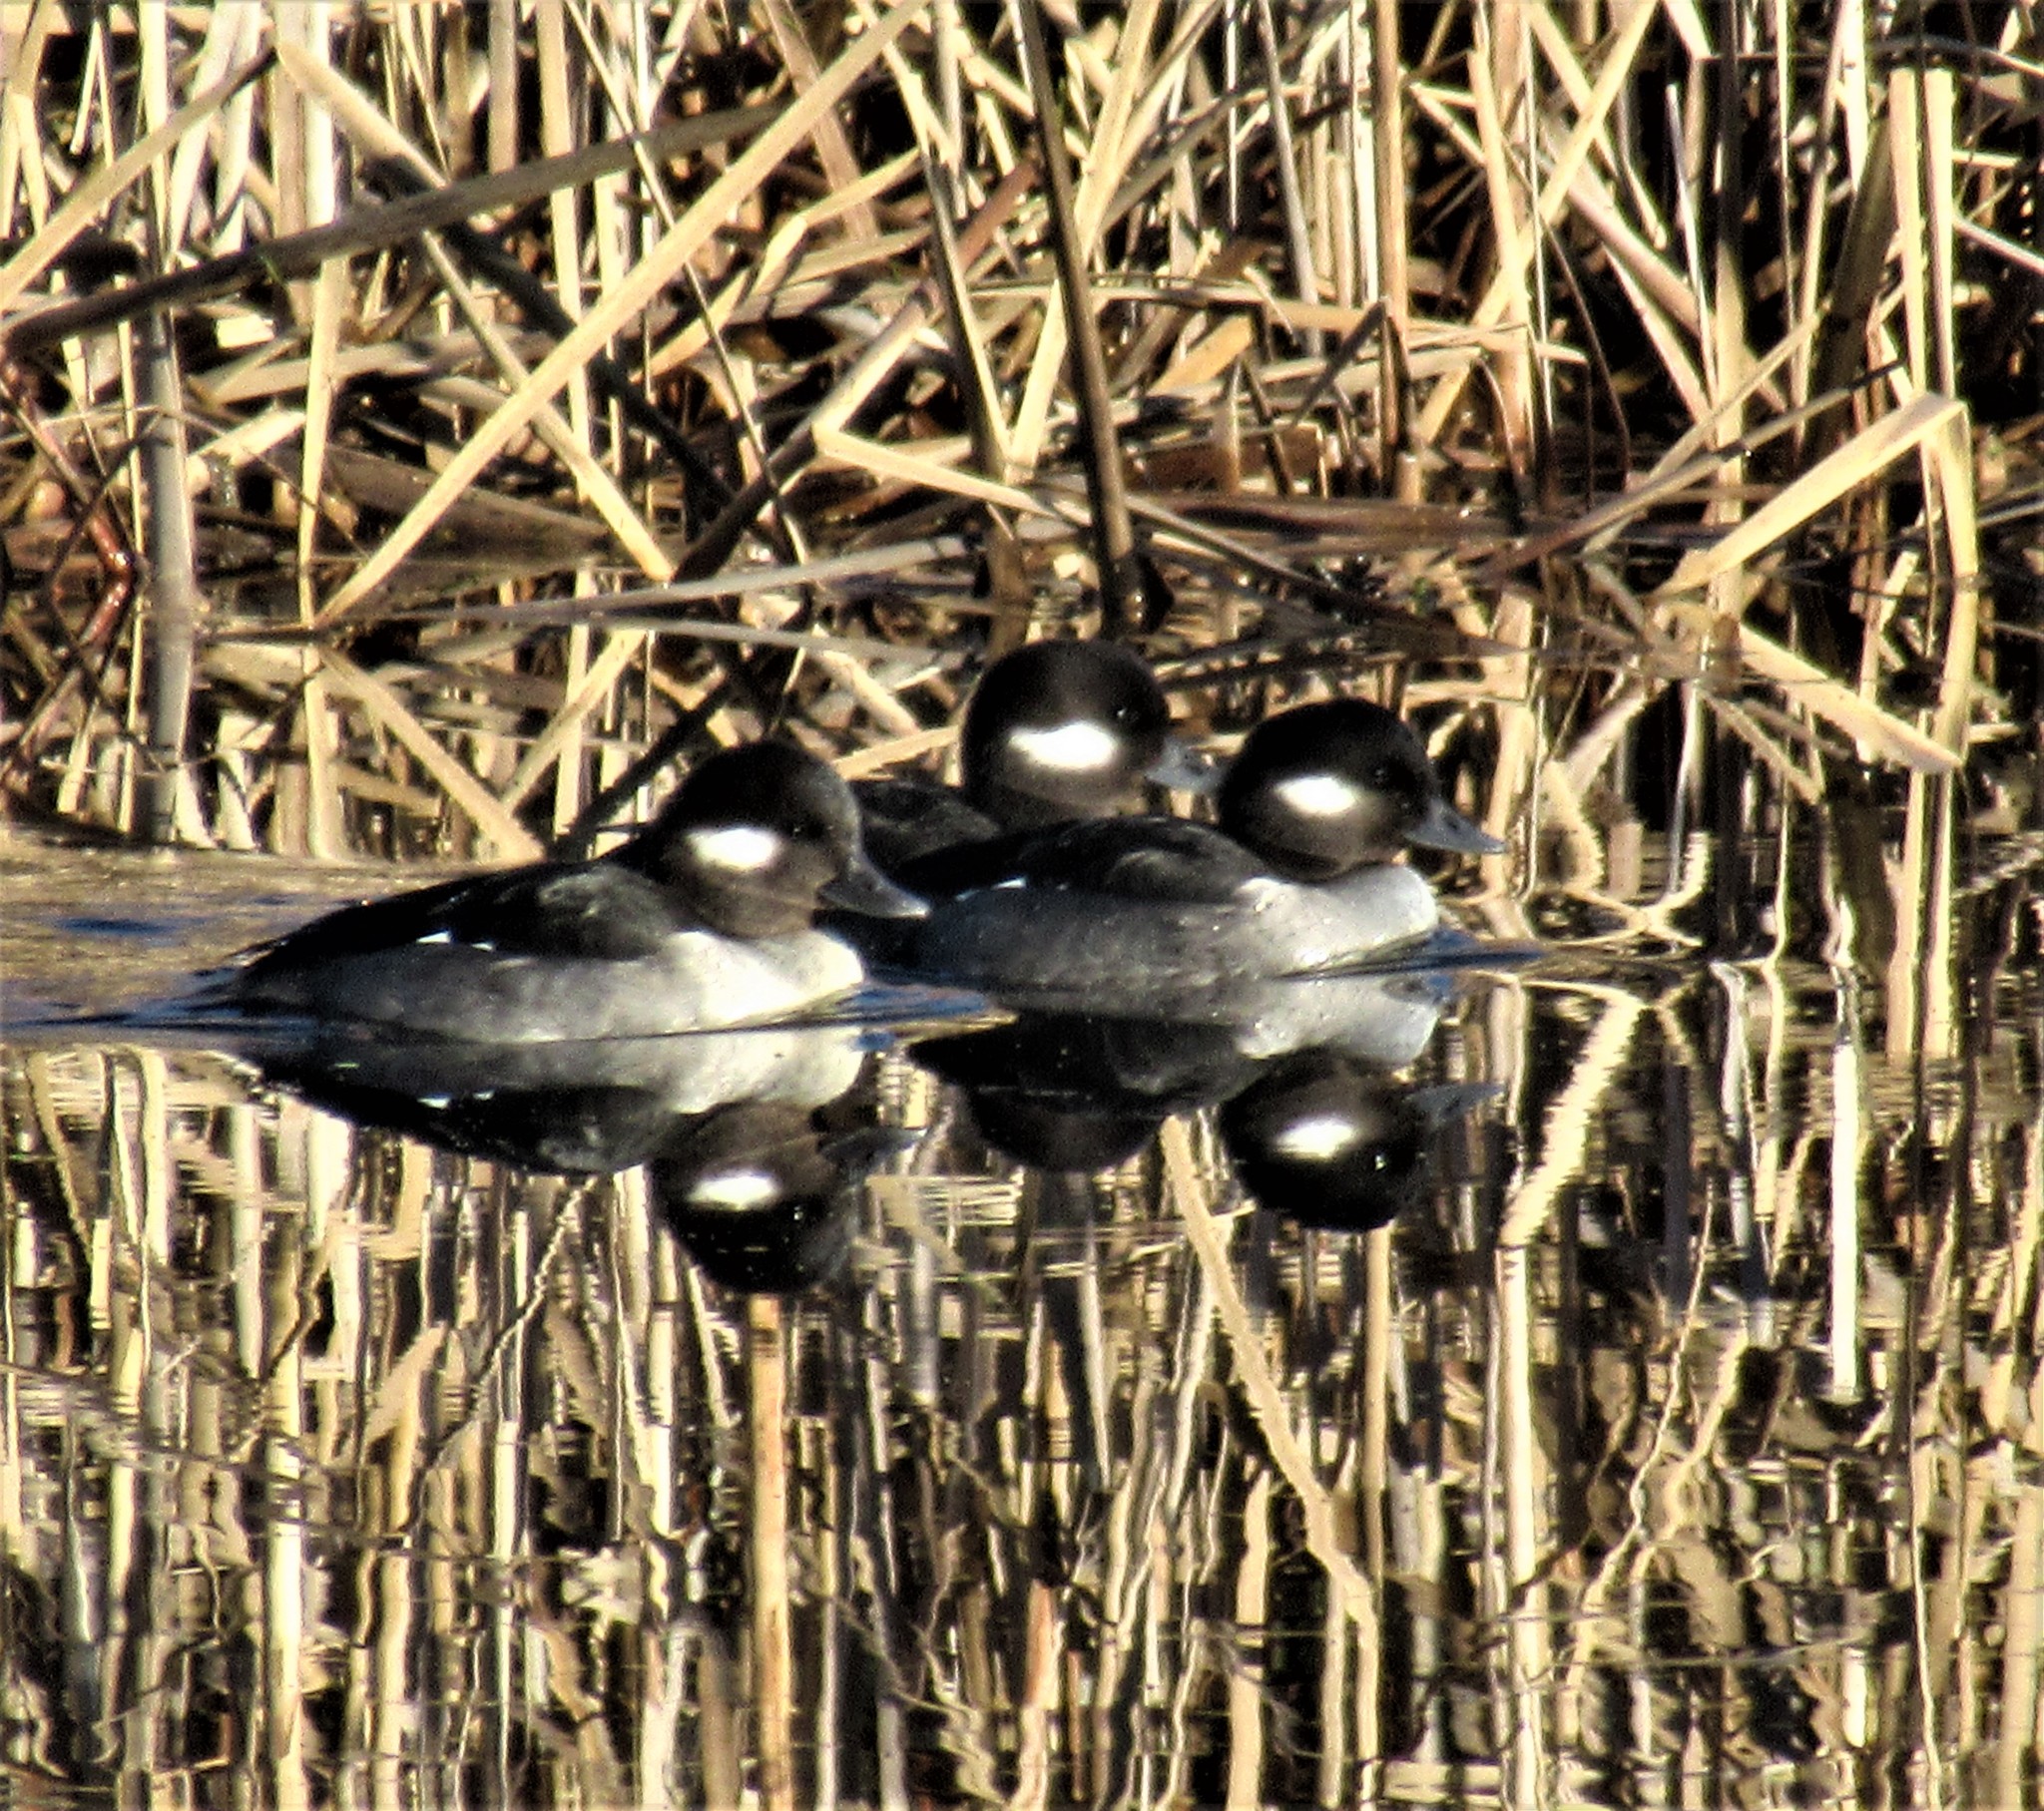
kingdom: Animalia
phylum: Chordata
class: Aves
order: Anseriformes
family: Anatidae
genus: Bucephala
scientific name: Bucephala albeola
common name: Bufflehead
